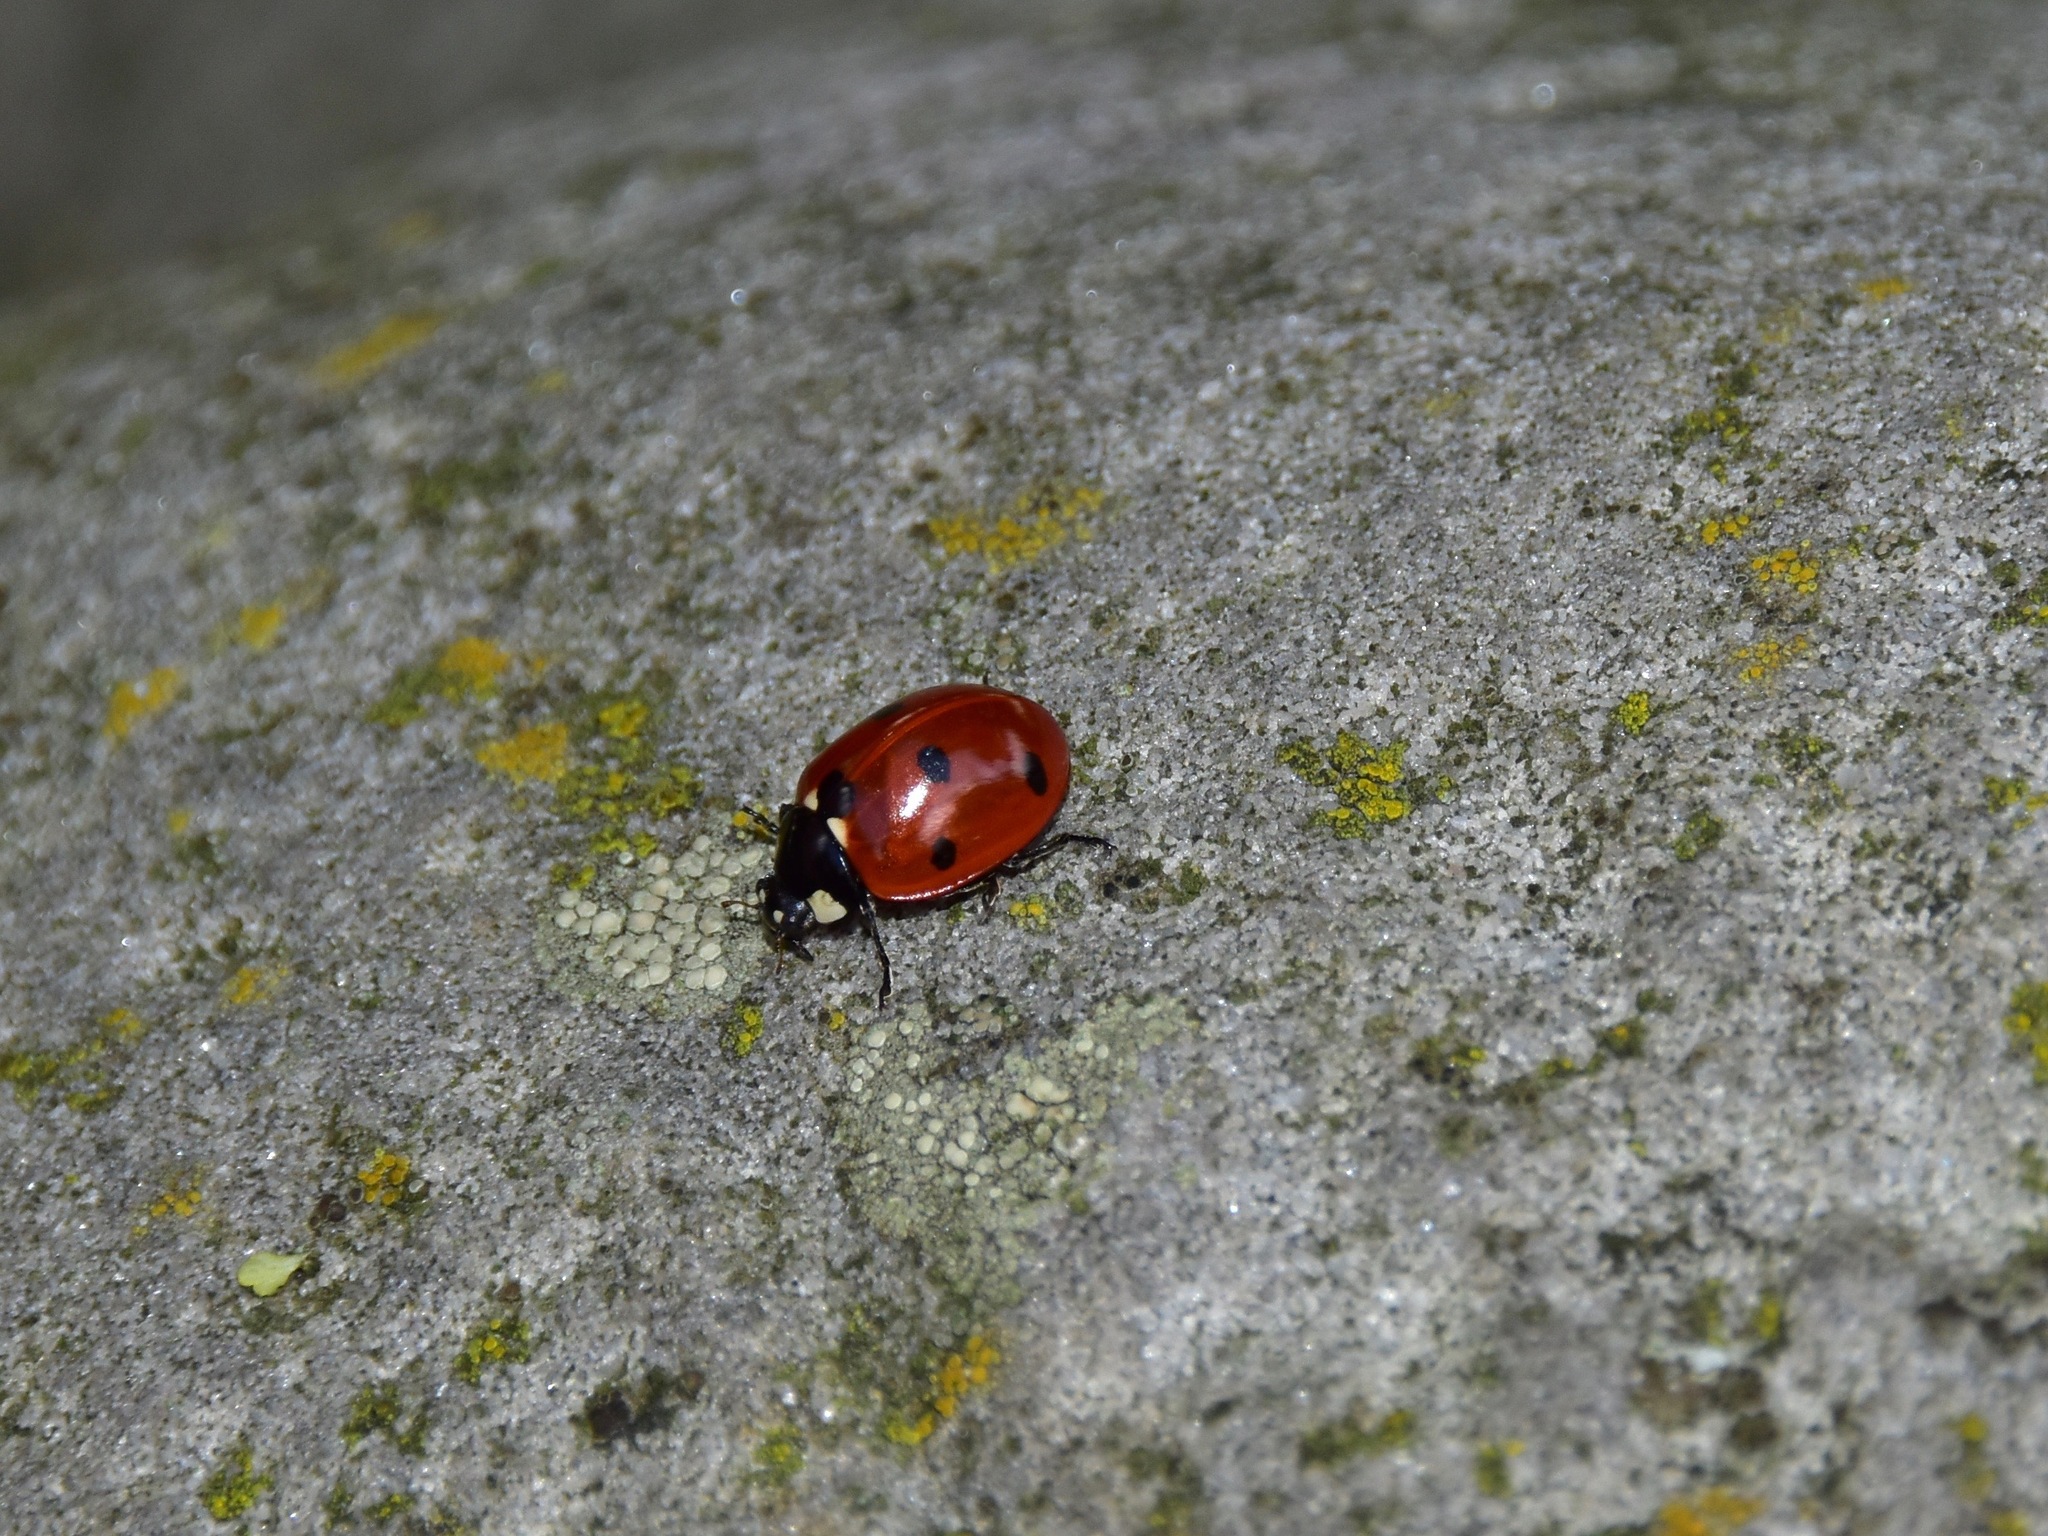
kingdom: Animalia
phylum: Arthropoda
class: Insecta
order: Coleoptera
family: Coccinellidae
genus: Coccinella
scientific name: Coccinella septempunctata
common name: Sevenspotted lady beetle
